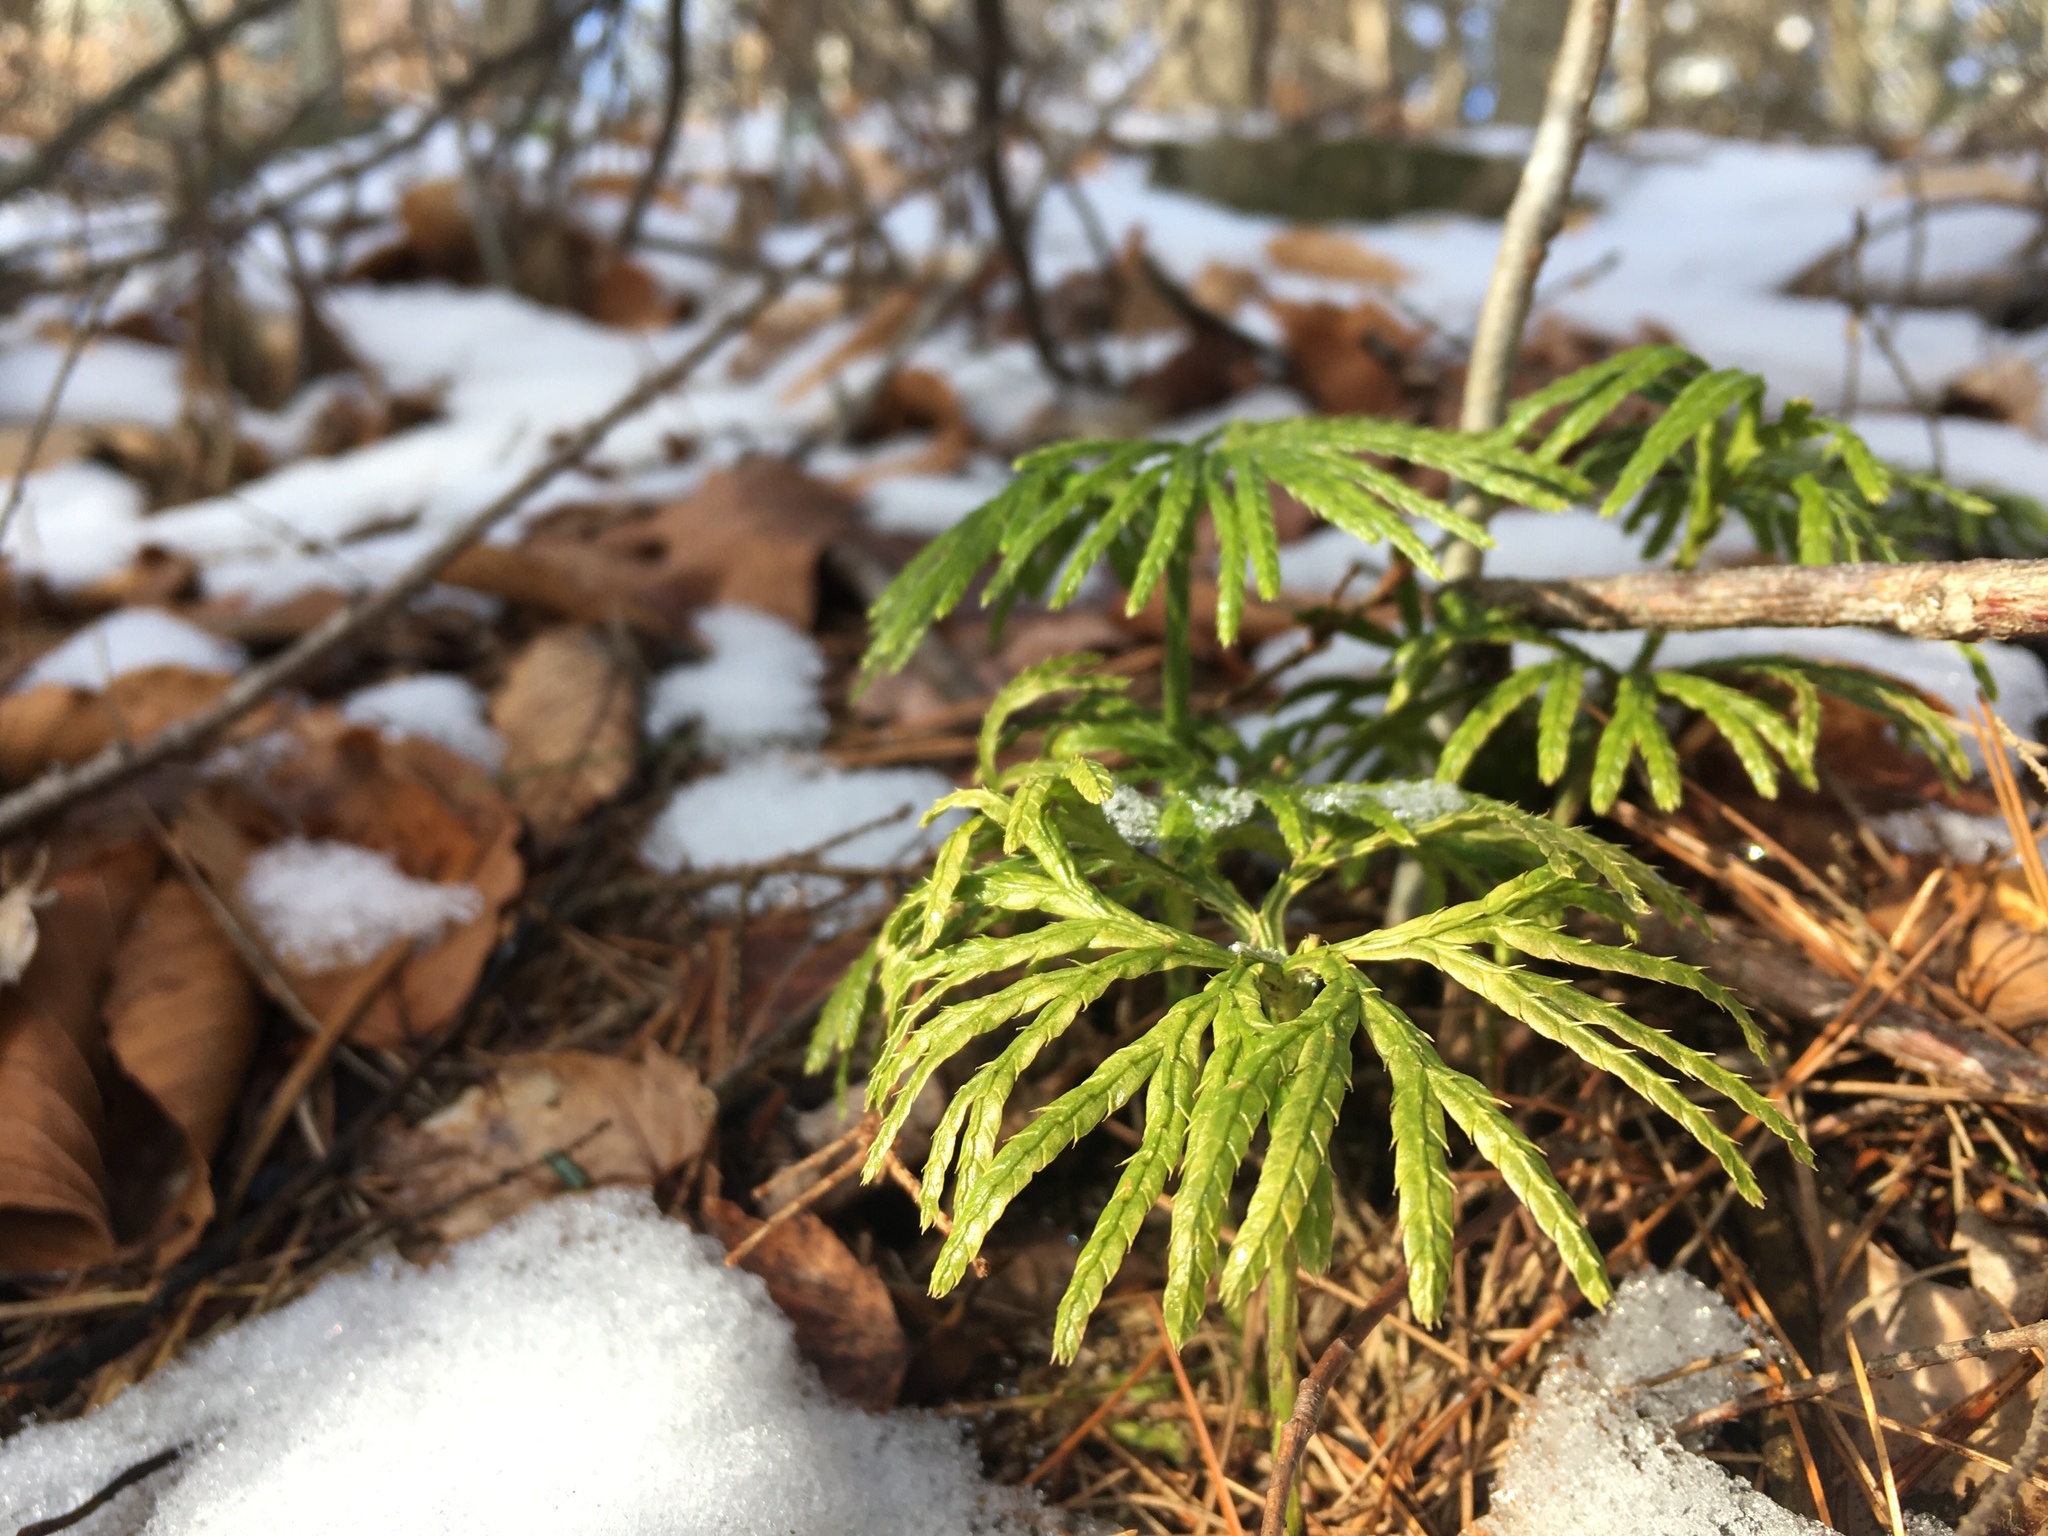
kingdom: Plantae
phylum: Tracheophyta
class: Lycopodiopsida
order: Lycopodiales
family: Lycopodiaceae
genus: Diphasiastrum
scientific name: Diphasiastrum digitatum
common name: Southern running-pine
